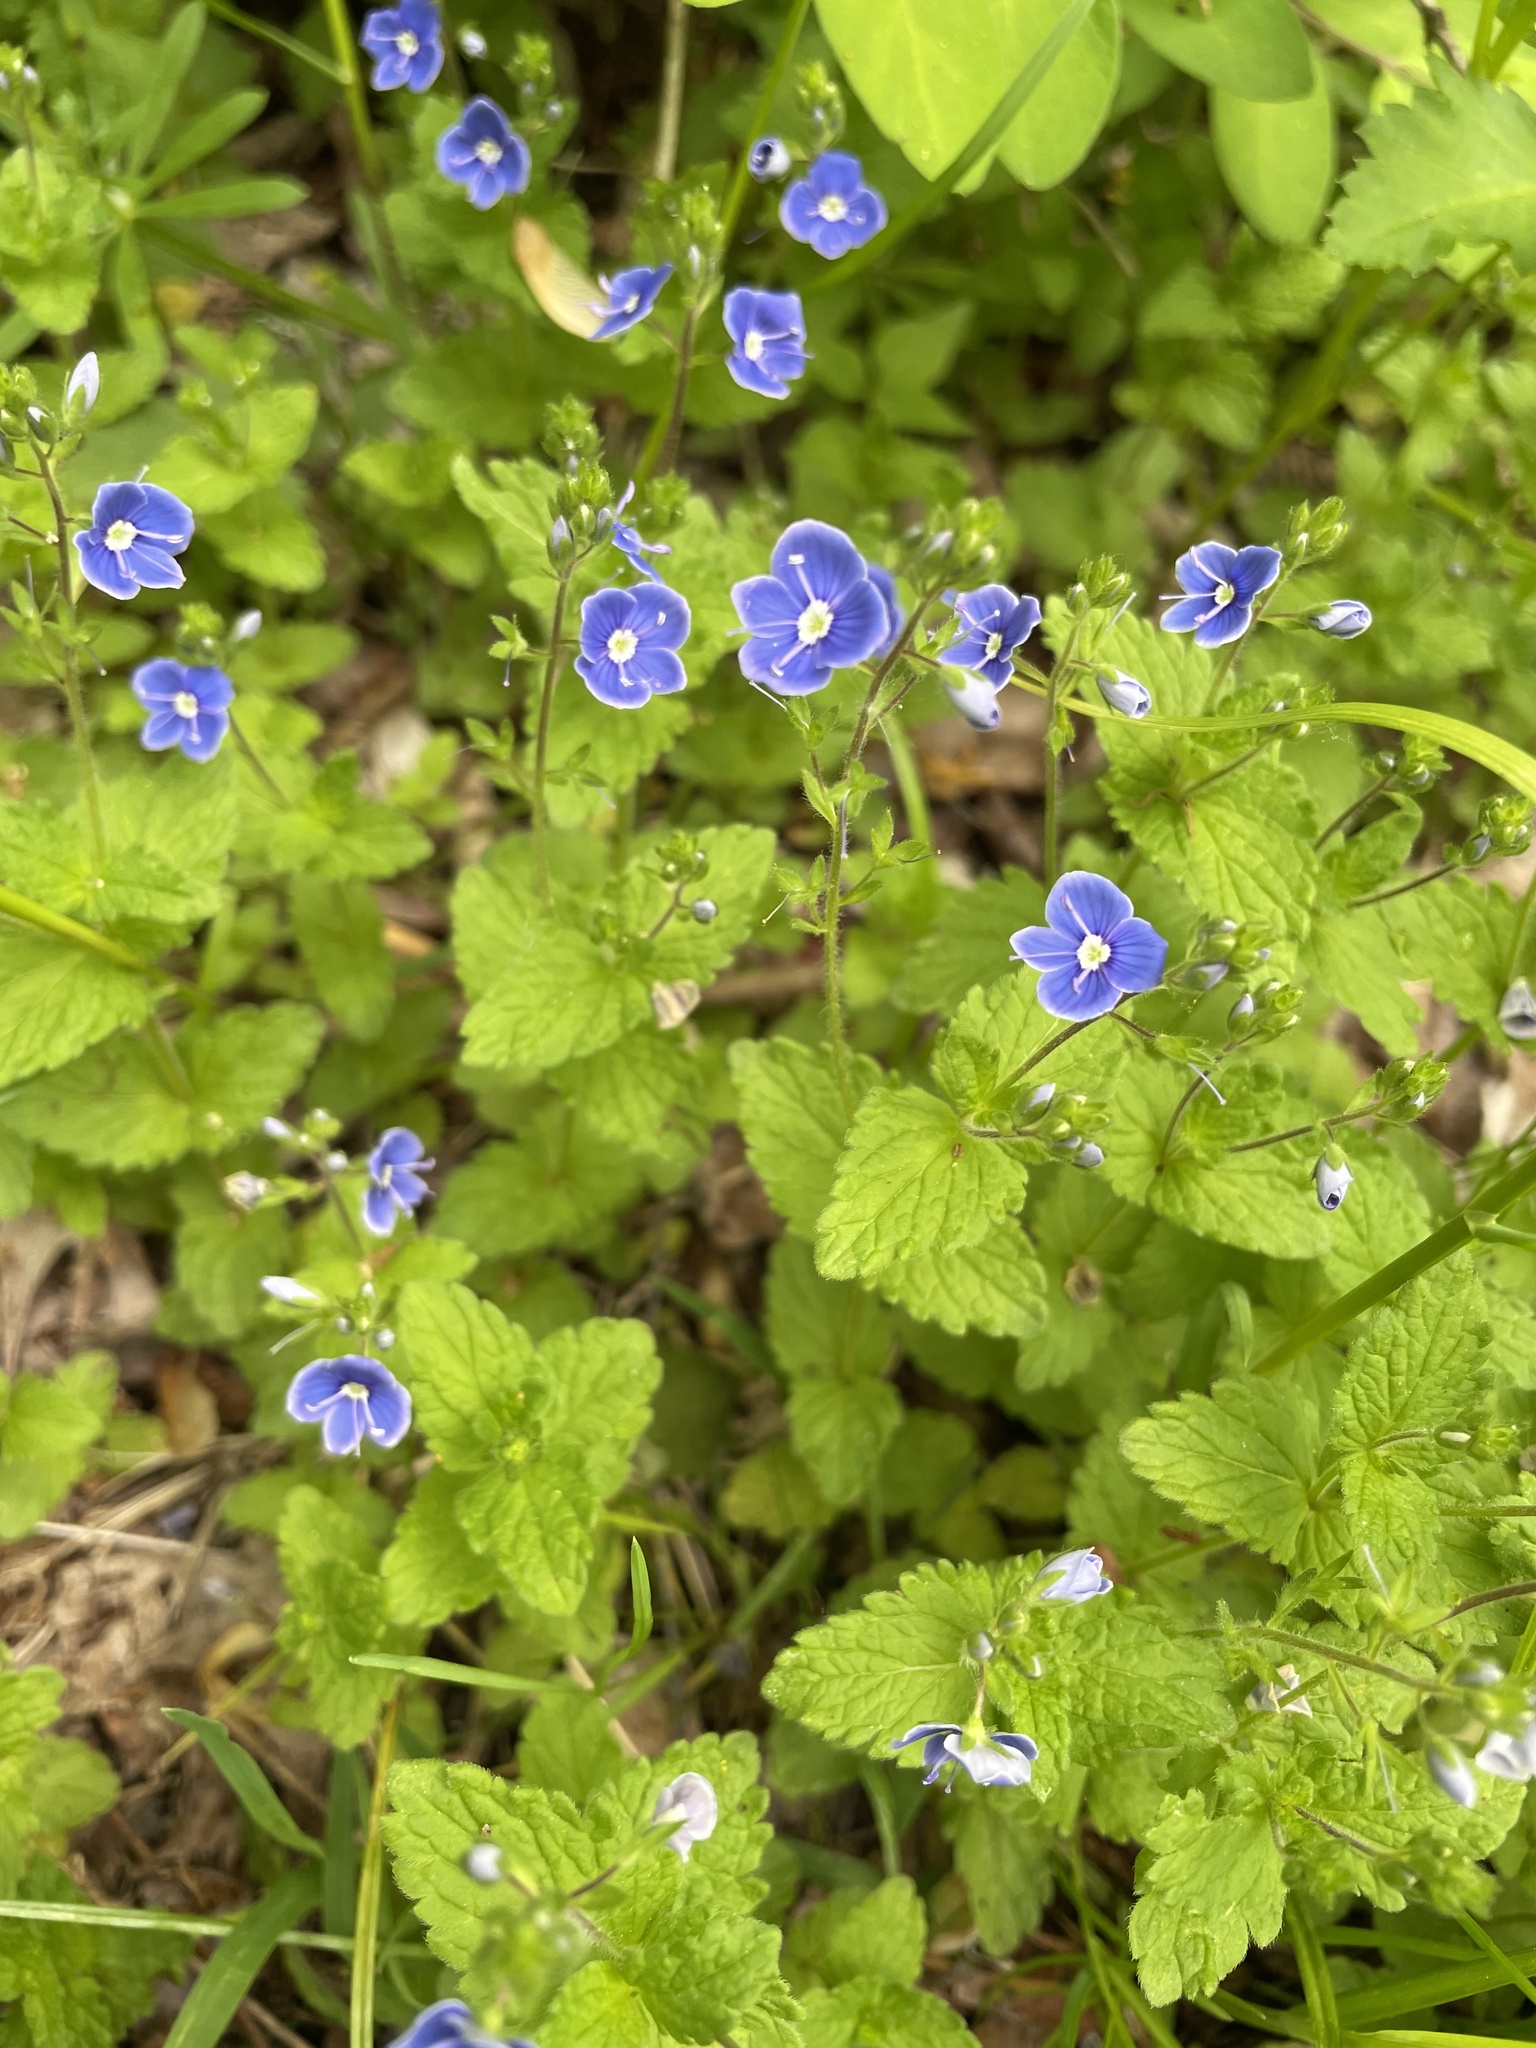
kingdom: Plantae
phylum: Tracheophyta
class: Magnoliopsida
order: Lamiales
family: Plantaginaceae
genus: Veronica
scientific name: Veronica chamaedrys
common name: Germander speedwell
